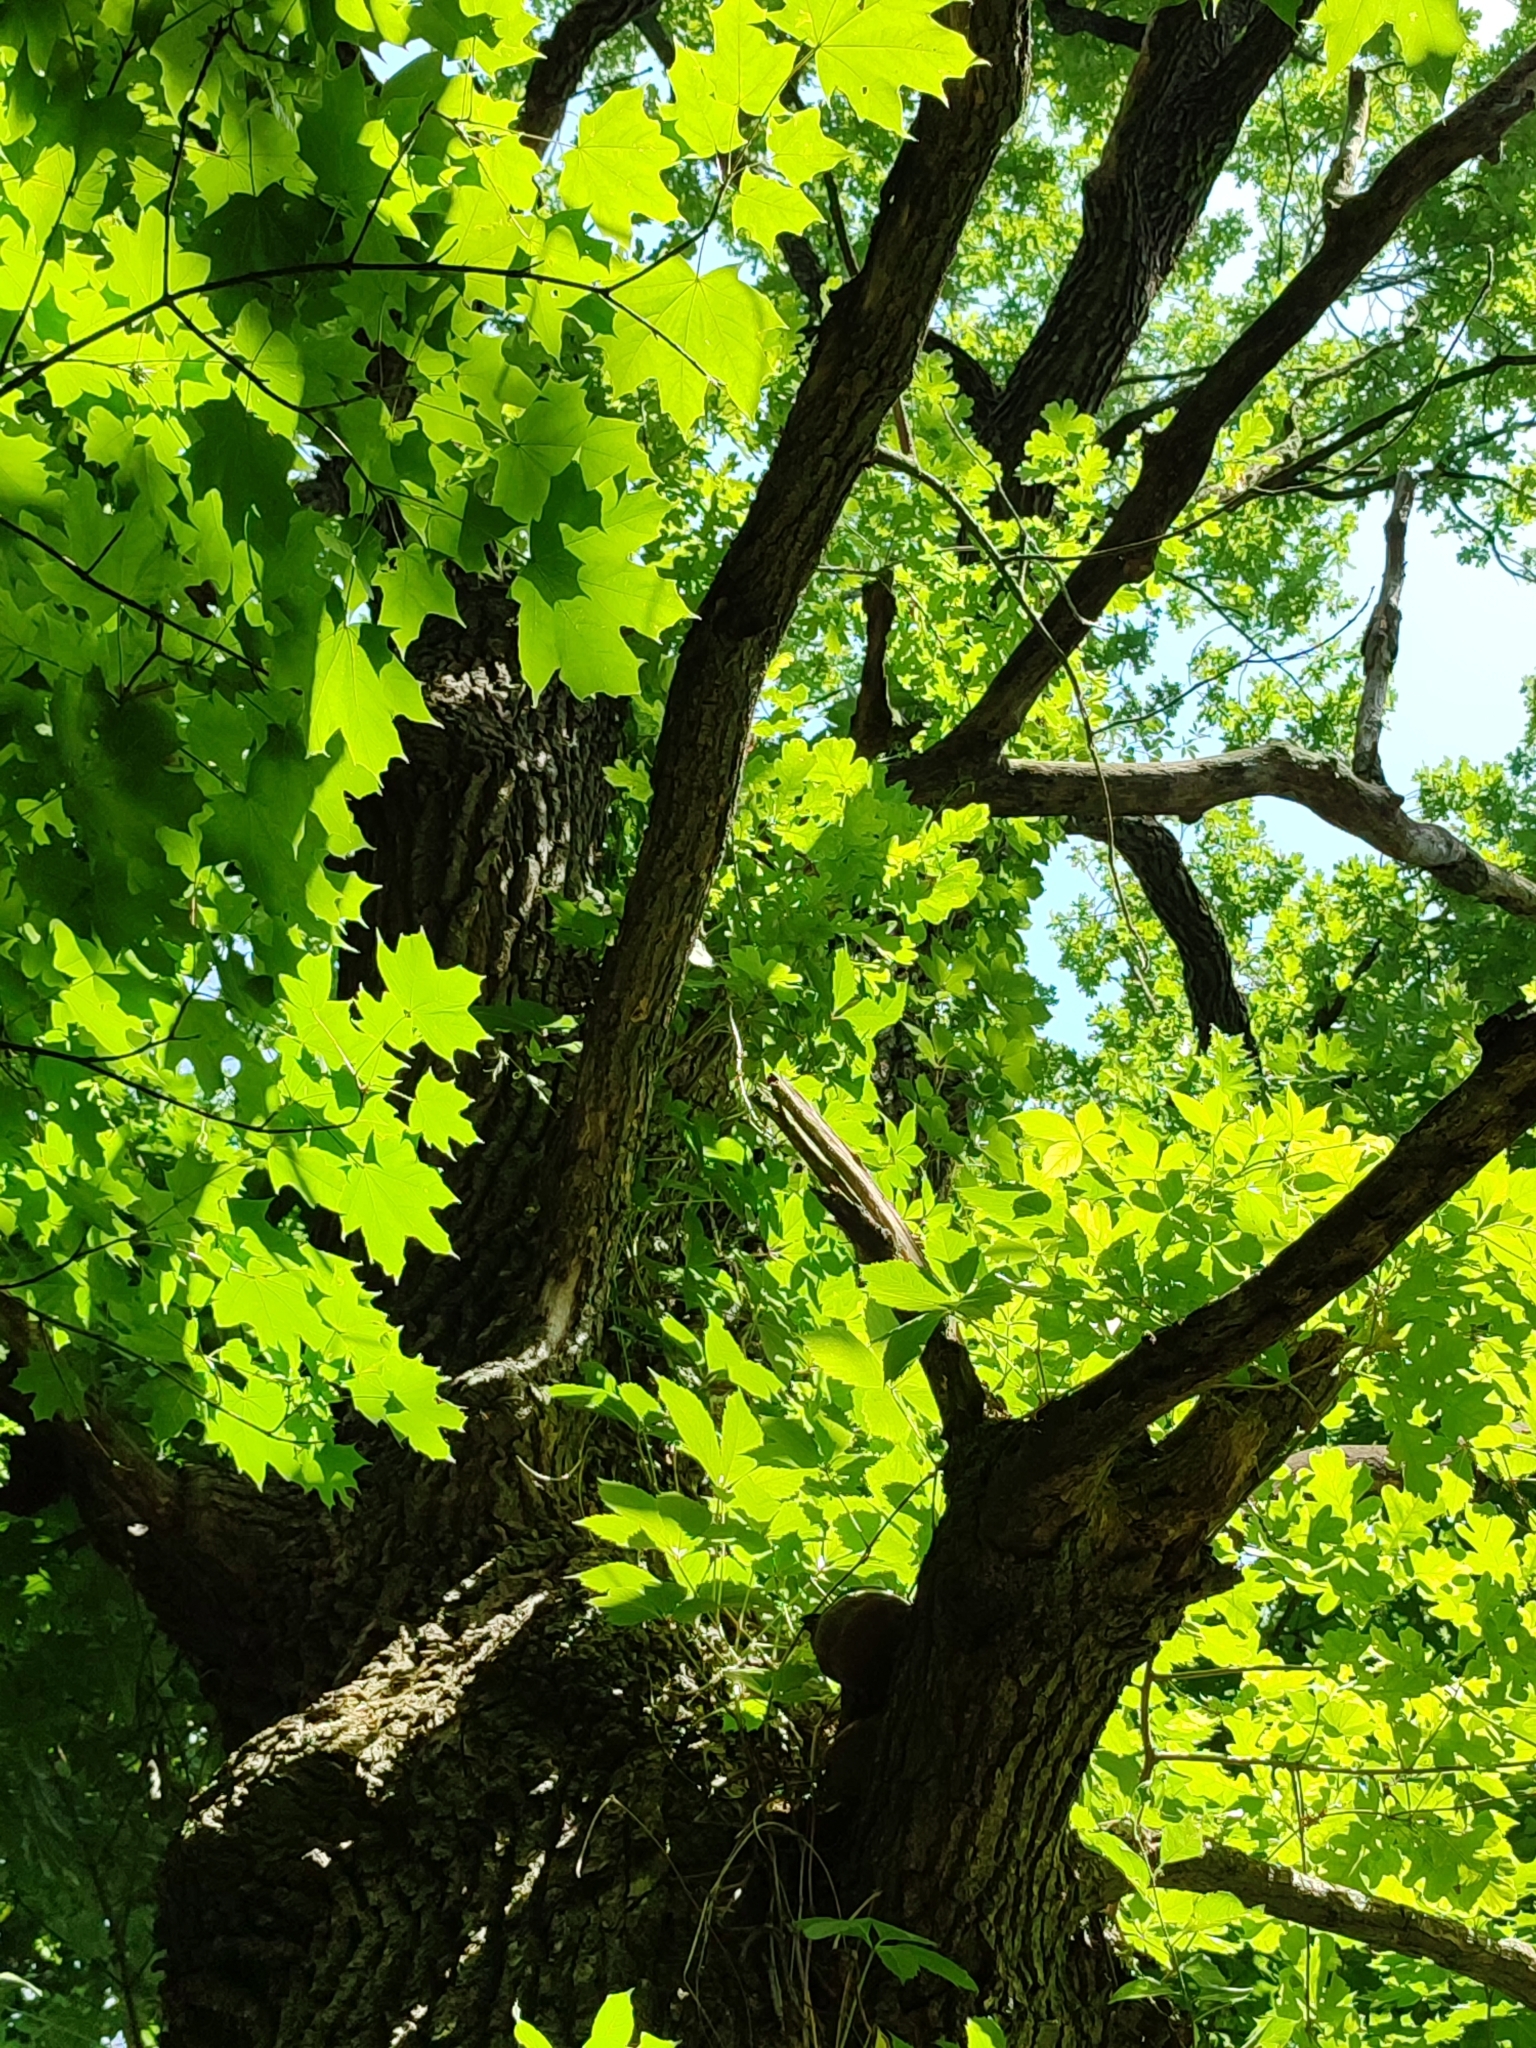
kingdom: Plantae
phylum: Tracheophyta
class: Magnoliopsida
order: Fagales
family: Fagaceae
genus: Quercus
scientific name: Quercus robur
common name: Pedunculate oak
